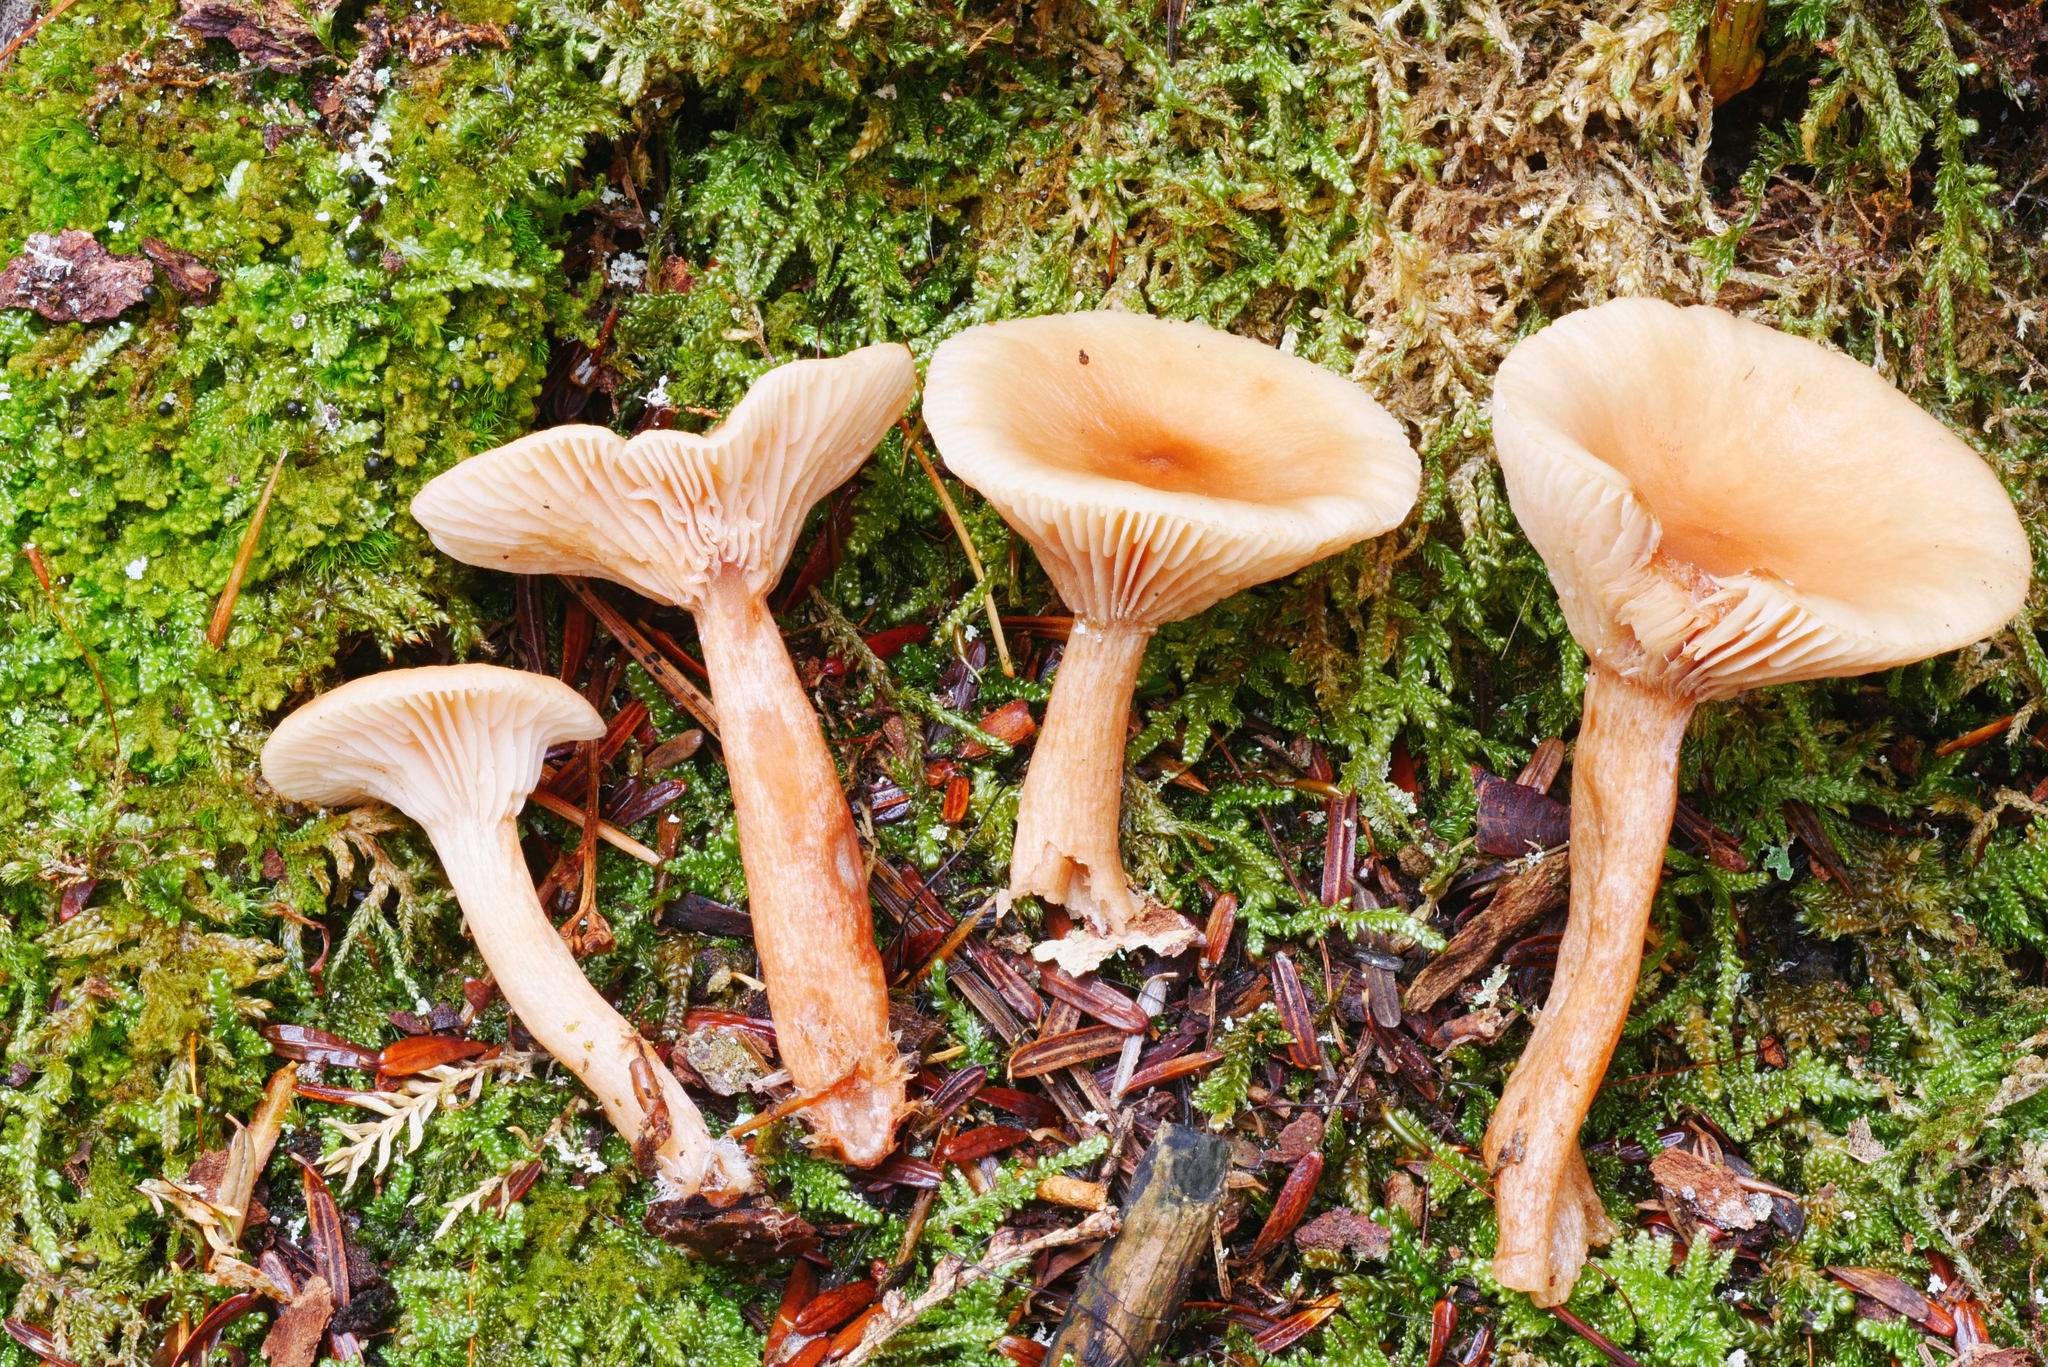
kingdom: Fungi
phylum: Basidiomycota
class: Agaricomycetes
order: Russulales
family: Russulaceae
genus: Lactarius
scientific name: Lactarius tabidus
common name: Birch milkcap
